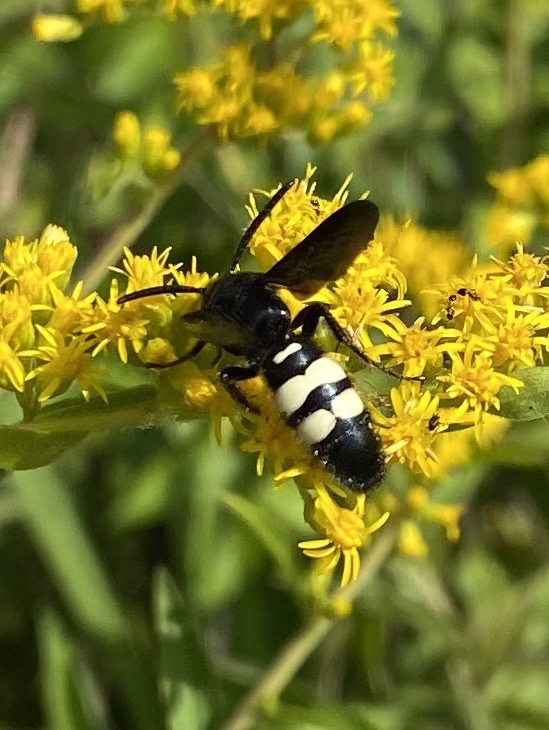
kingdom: Animalia
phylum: Arthropoda
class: Insecta
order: Hymenoptera
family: Scoliidae
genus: Scolia
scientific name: Scolia bicincta
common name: Double-banded scoliid wasp
